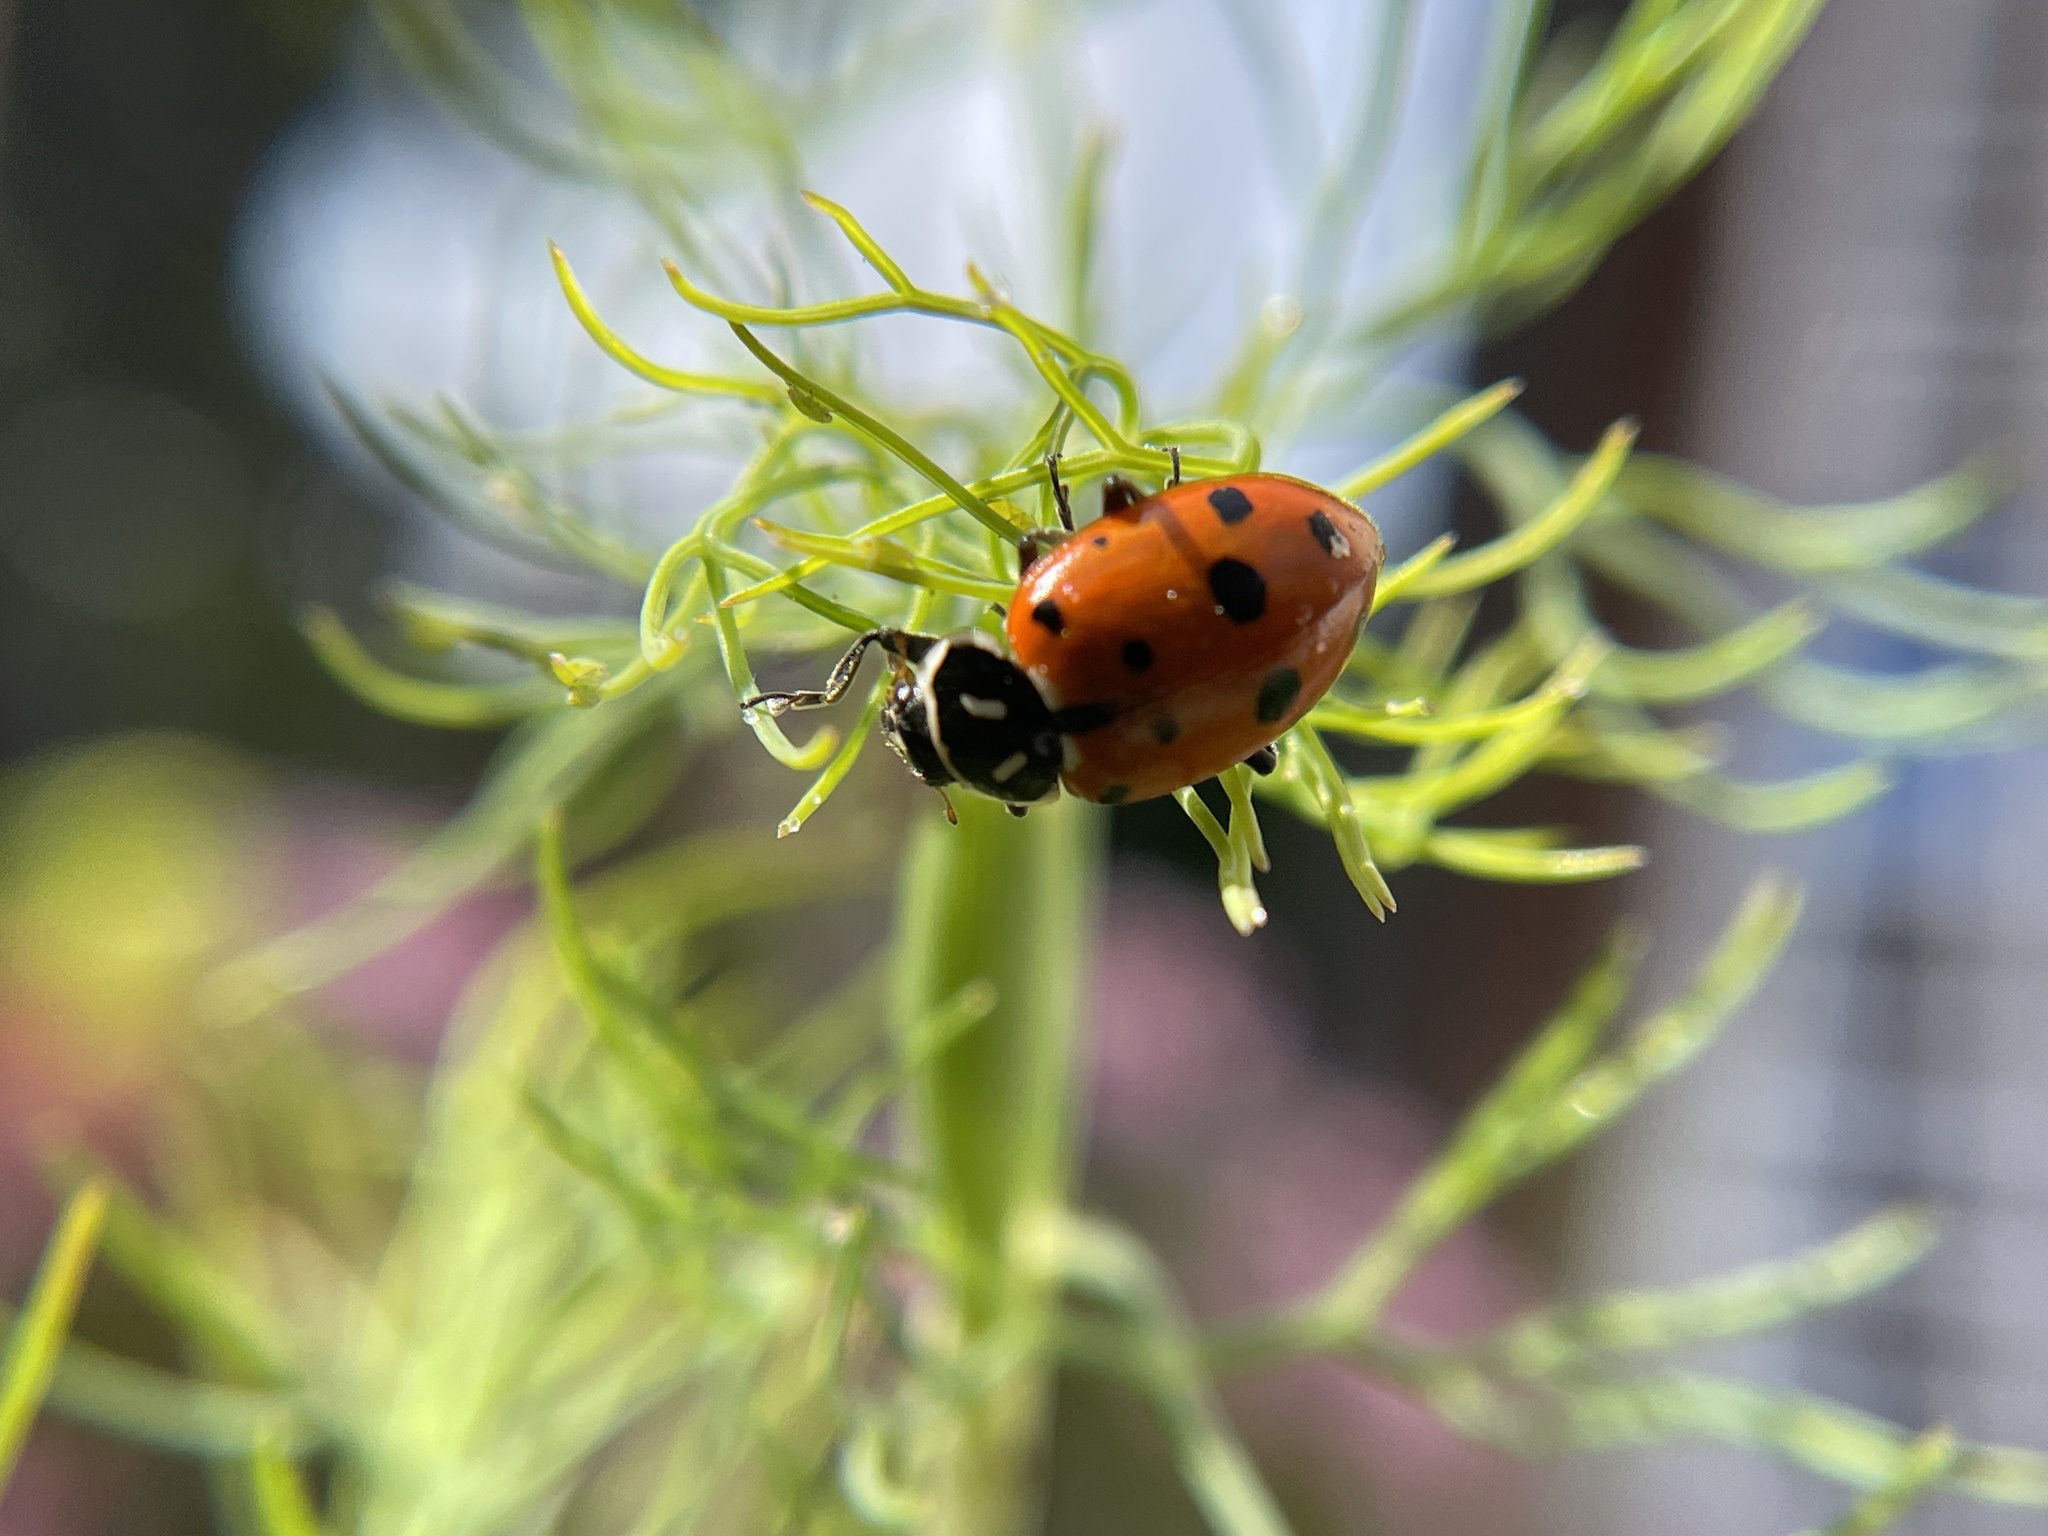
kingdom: Animalia
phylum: Arthropoda
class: Insecta
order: Coleoptera
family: Coccinellidae
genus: Hippodamia
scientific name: Hippodamia convergens
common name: Convergent lady beetle
